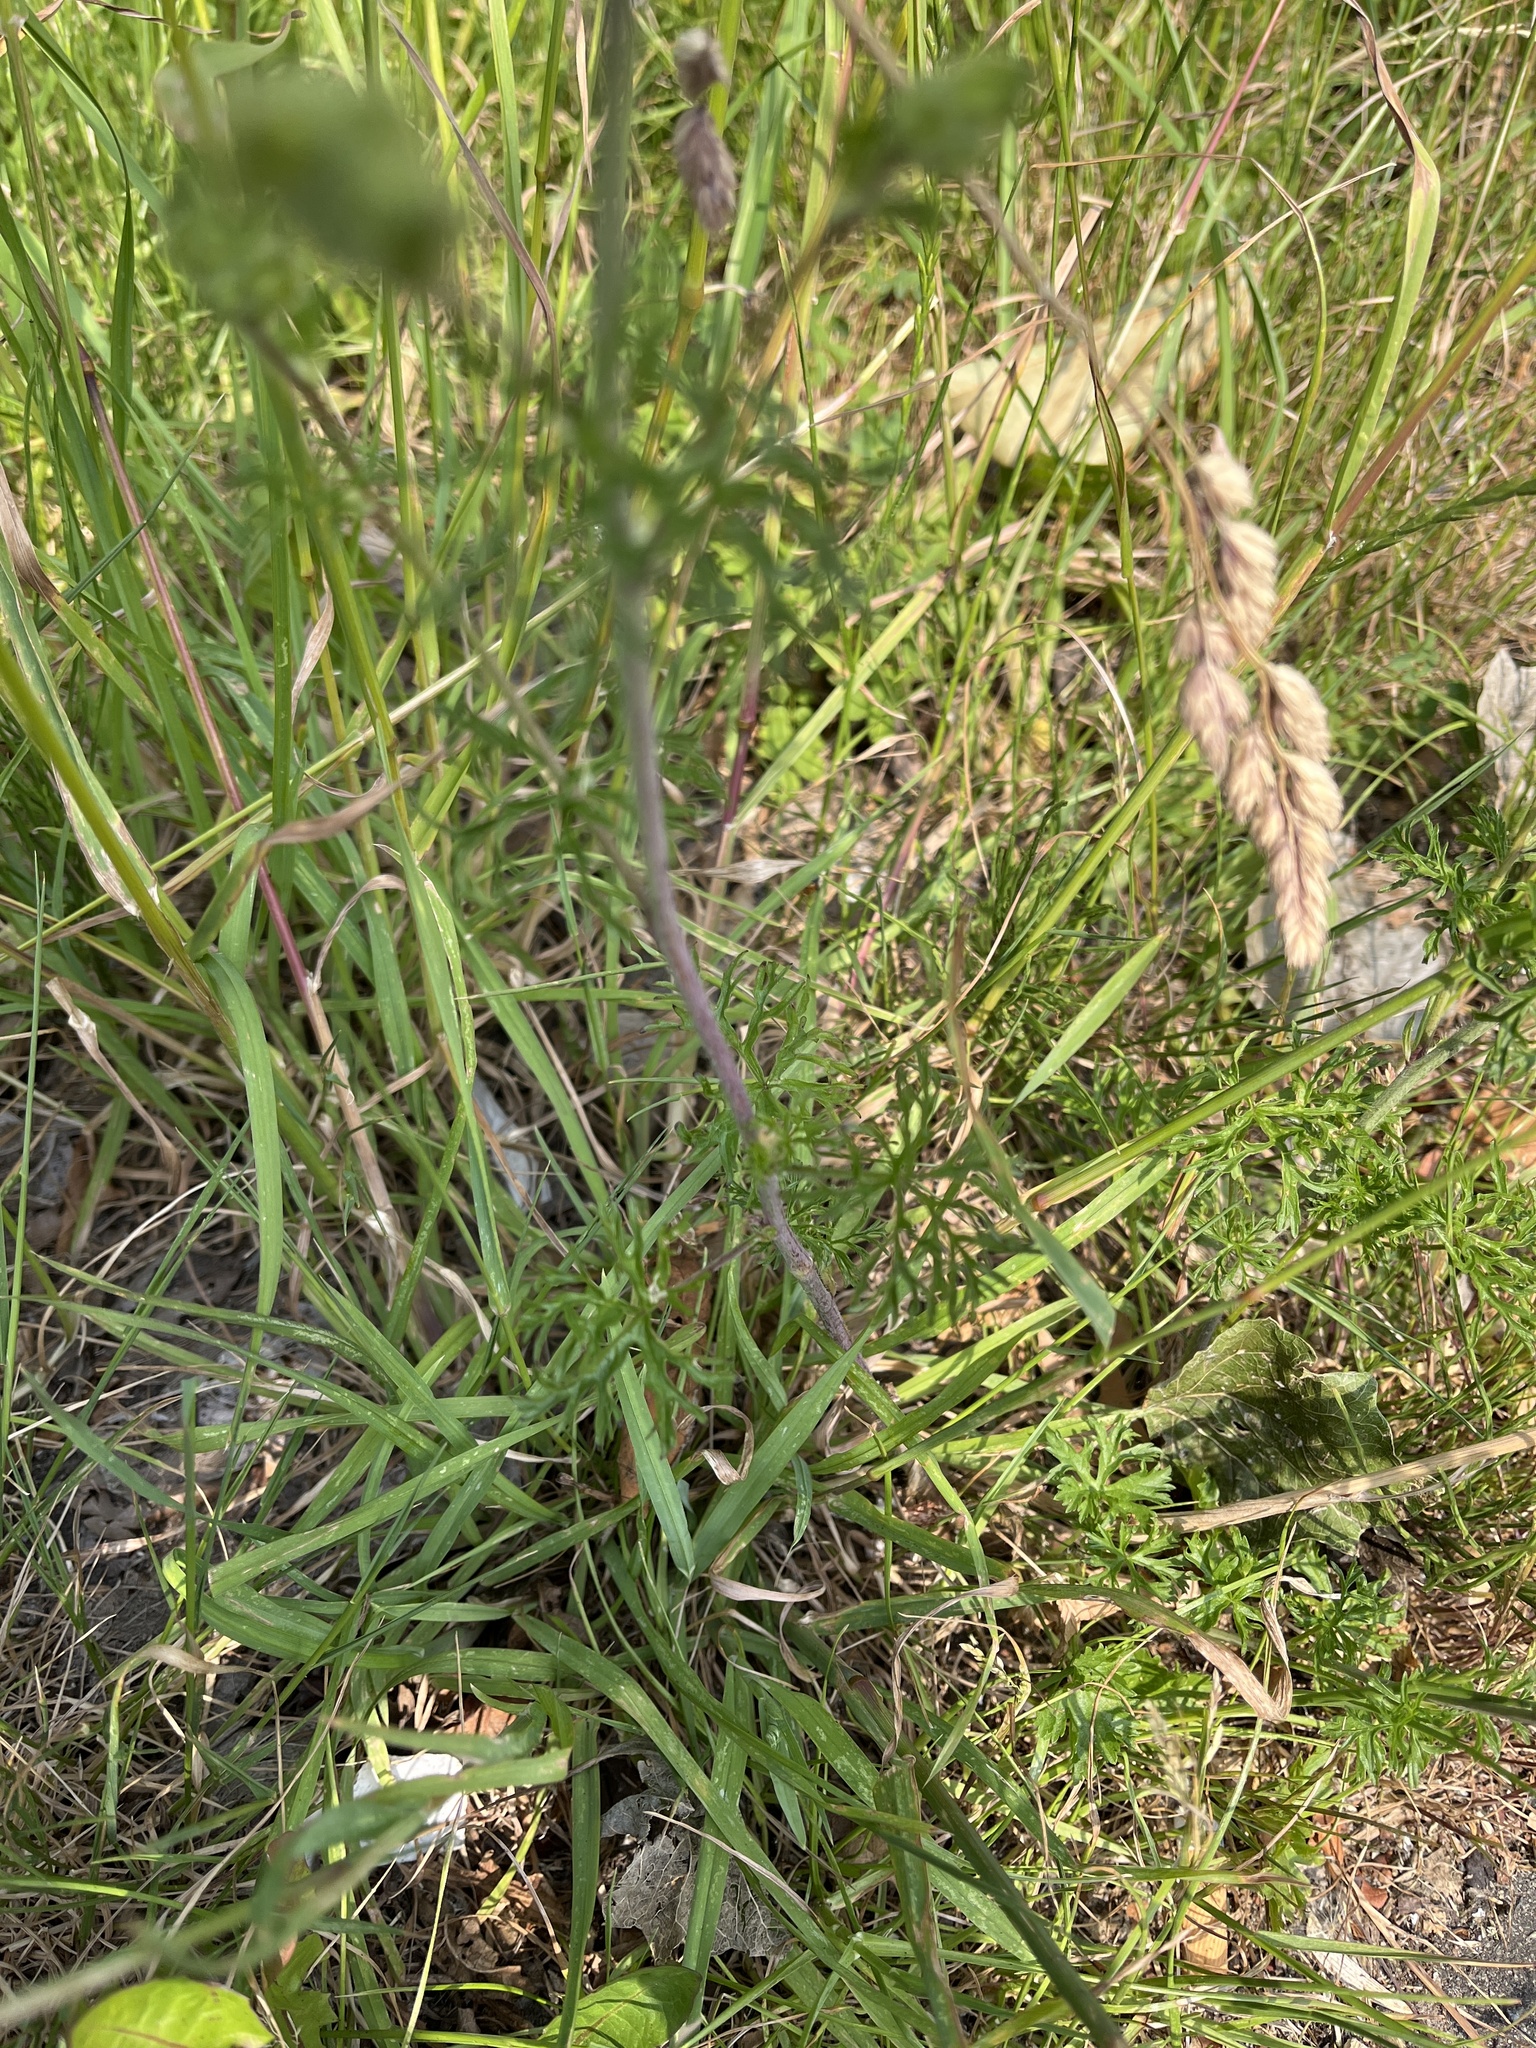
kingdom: Plantae
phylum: Tracheophyta
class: Magnoliopsida
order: Malvales
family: Malvaceae
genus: Malva
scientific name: Malva moschata
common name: Musk mallow
